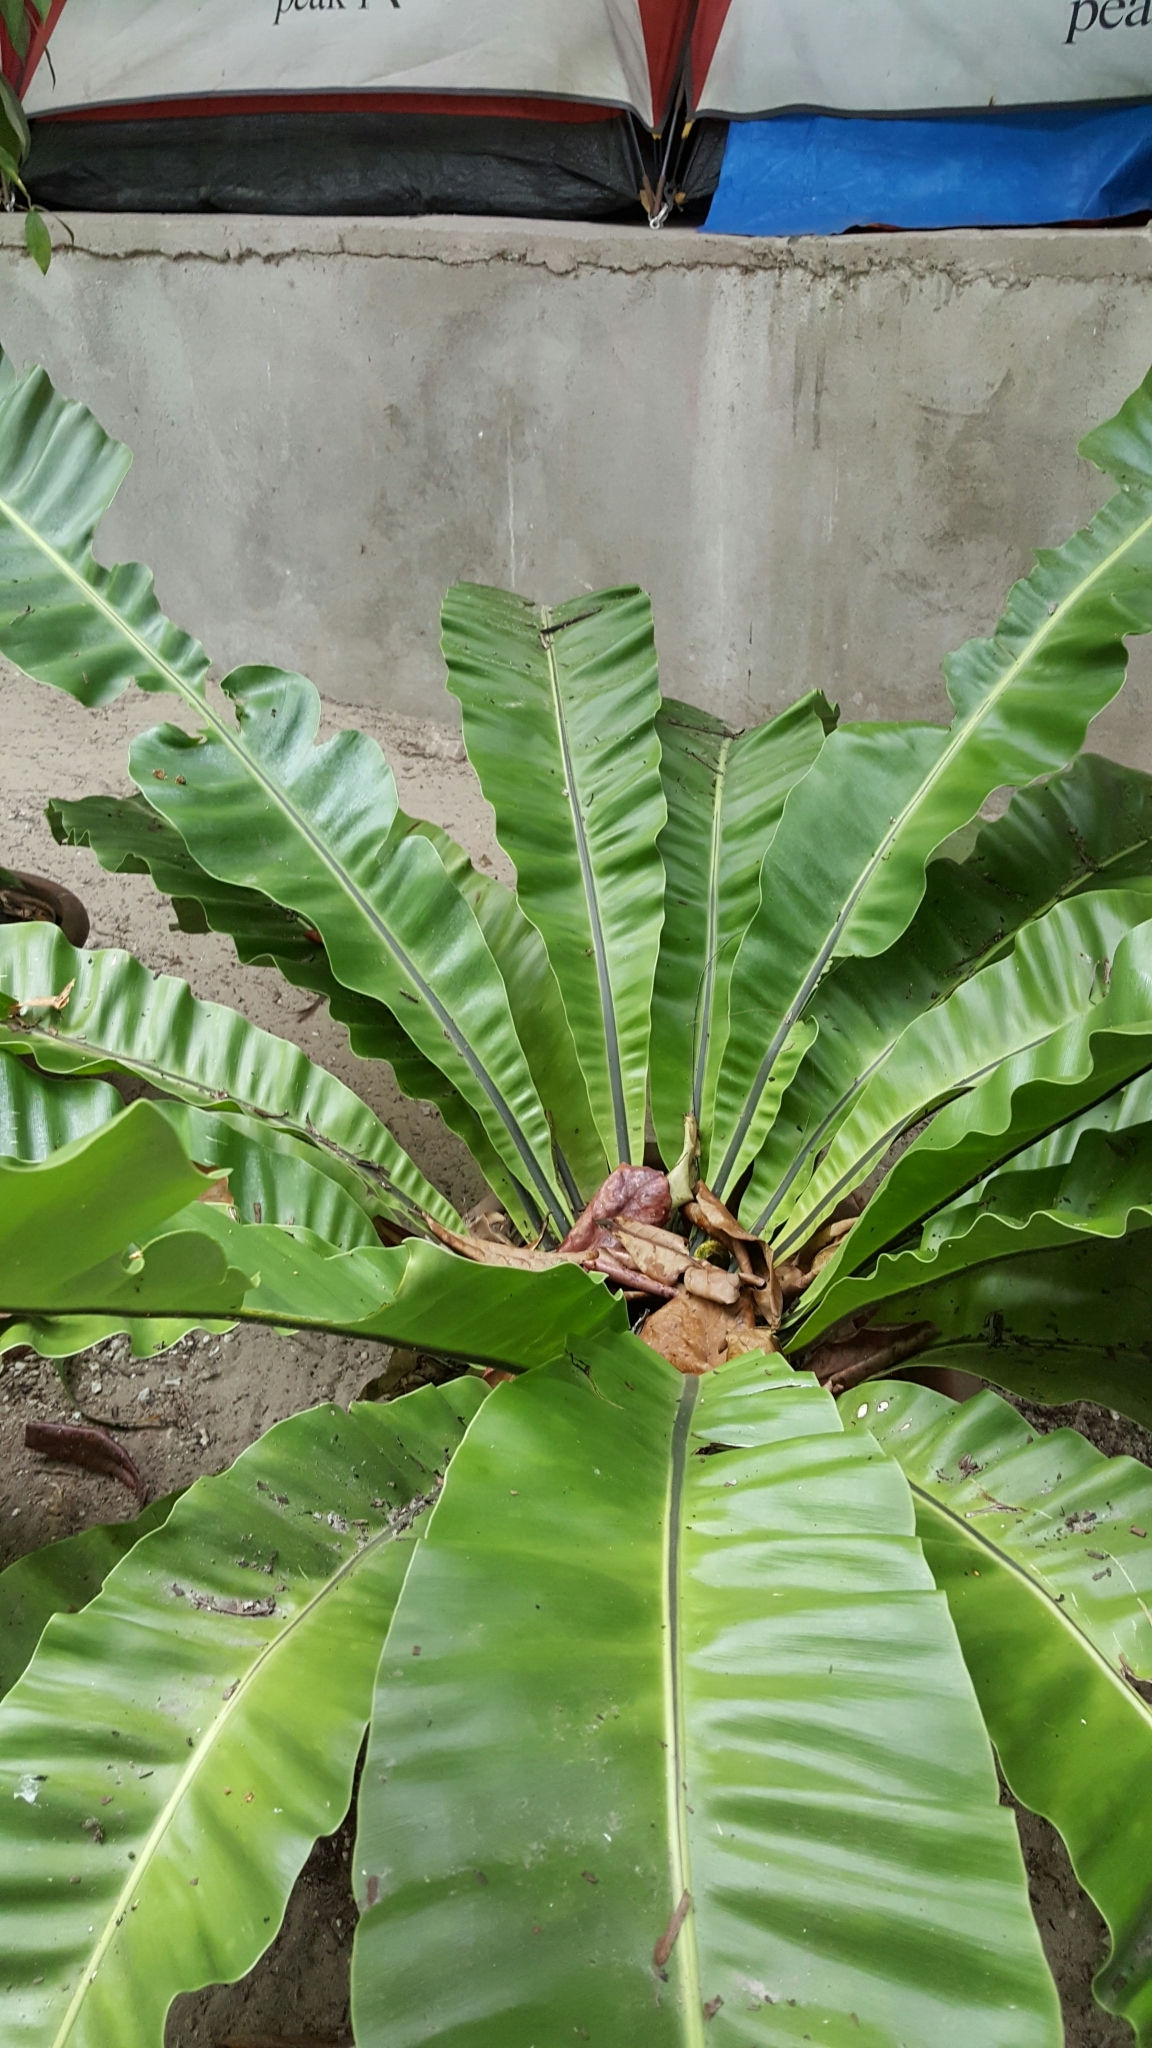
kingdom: Plantae
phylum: Tracheophyta
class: Polypodiopsida
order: Polypodiales
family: Aspleniaceae
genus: Asplenium
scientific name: Asplenium nidus
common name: Bird's-nest fern
